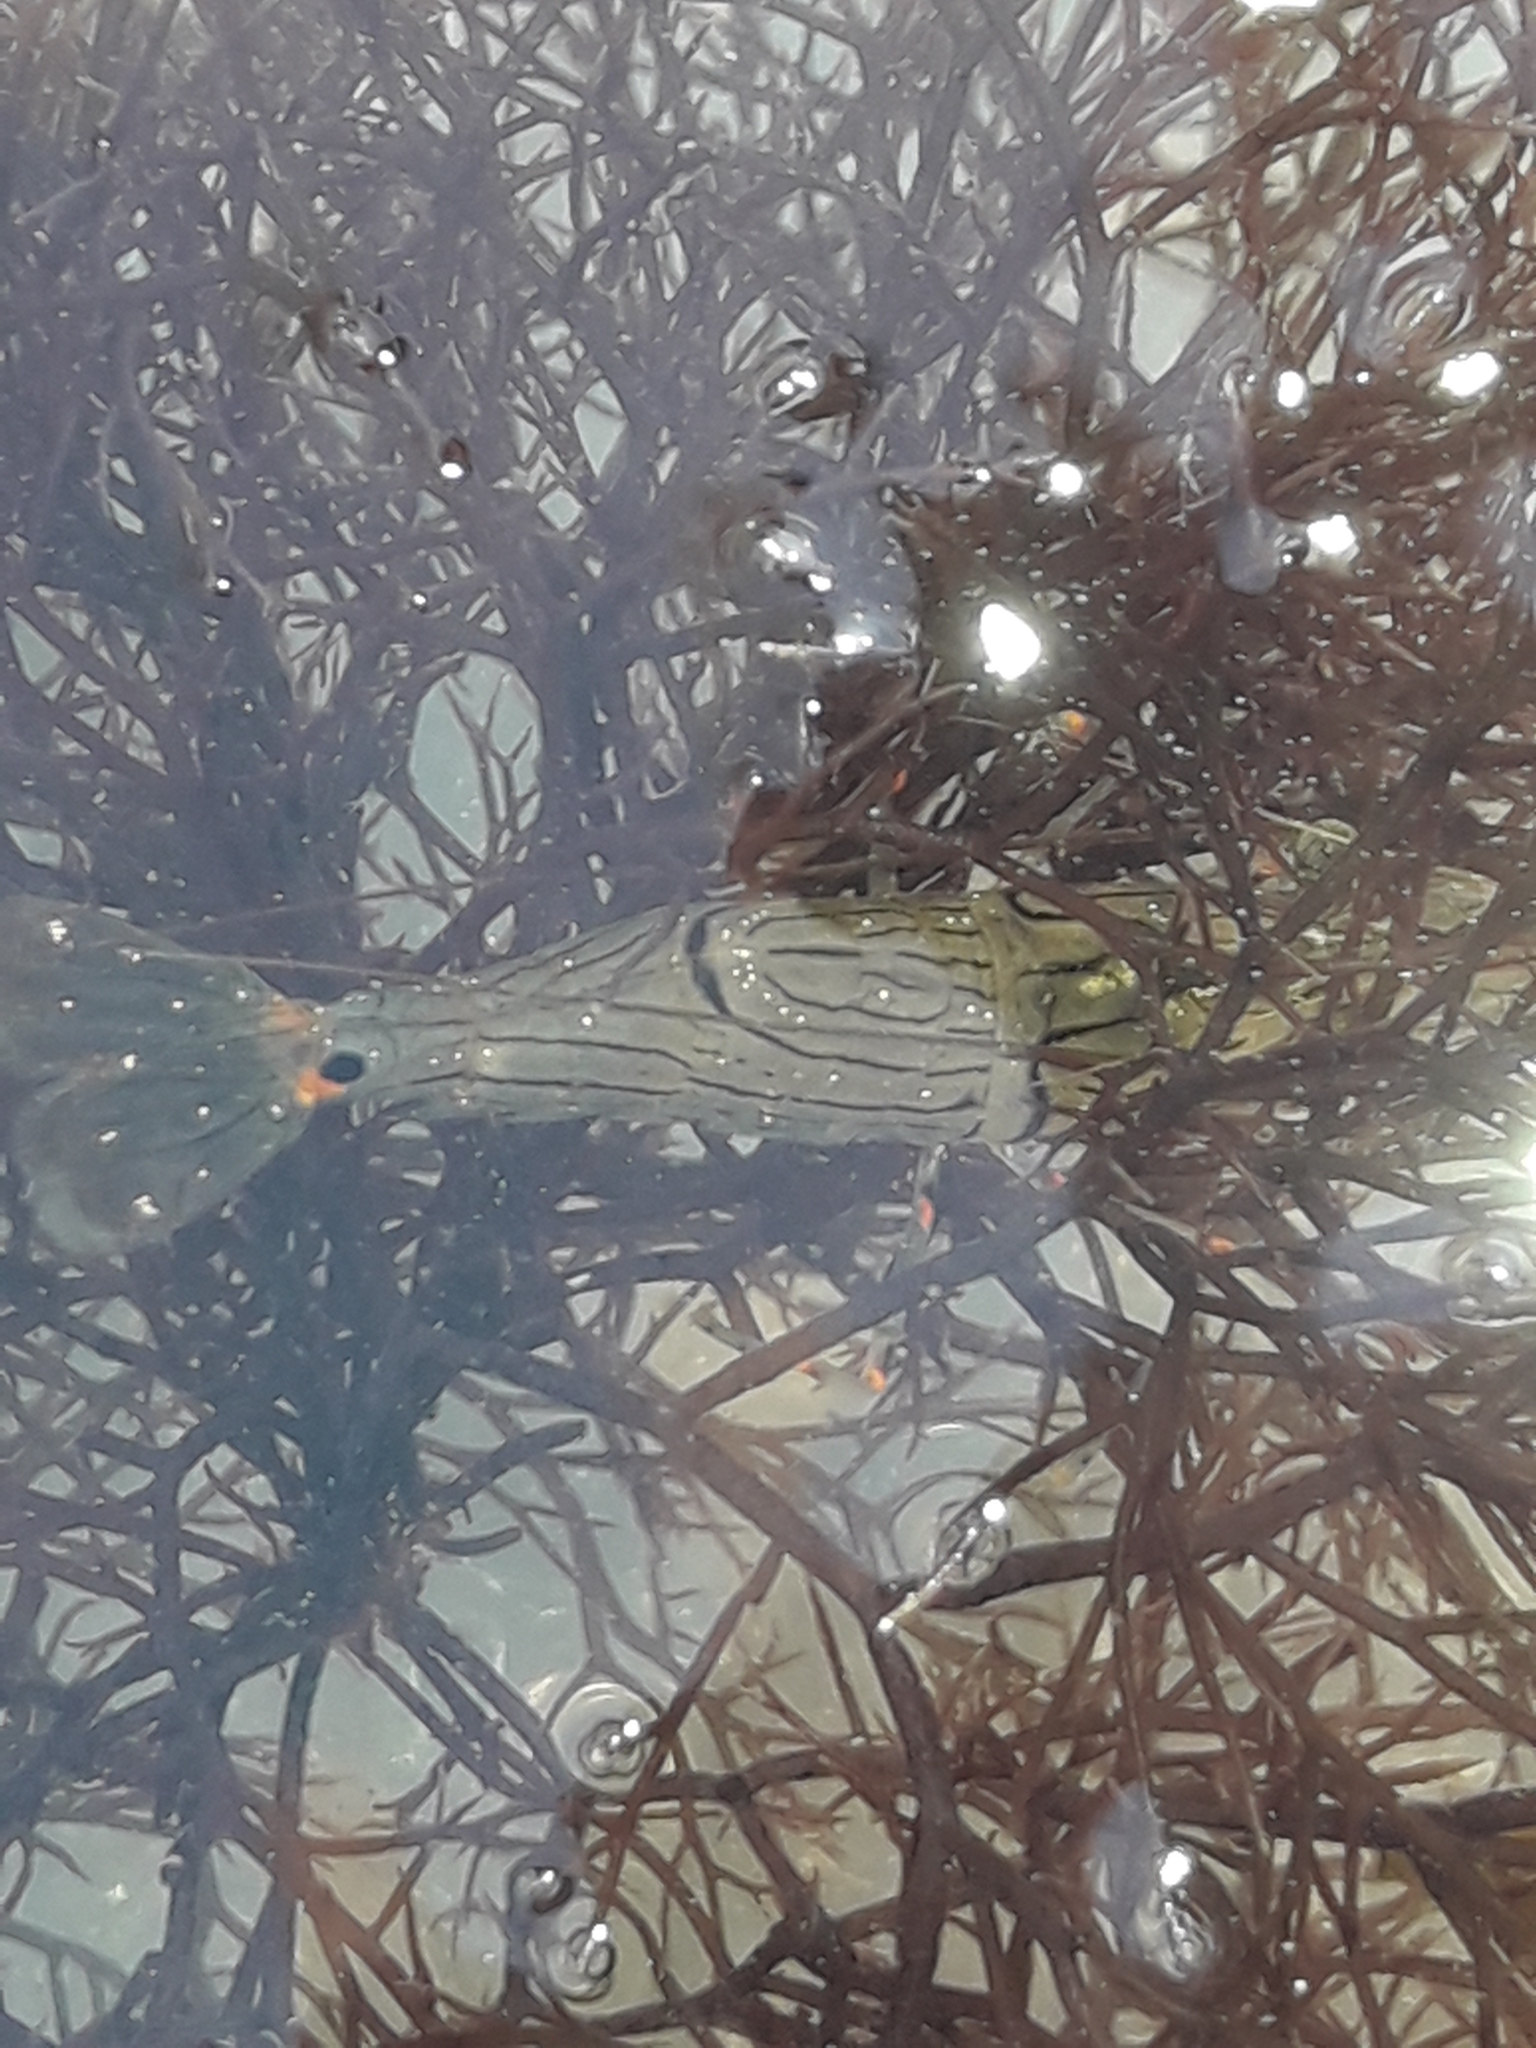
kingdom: Animalia
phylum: Arthropoda
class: Malacostraca
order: Decapoda
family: Palaemonidae
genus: Palaemon
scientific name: Palaemon affinis
